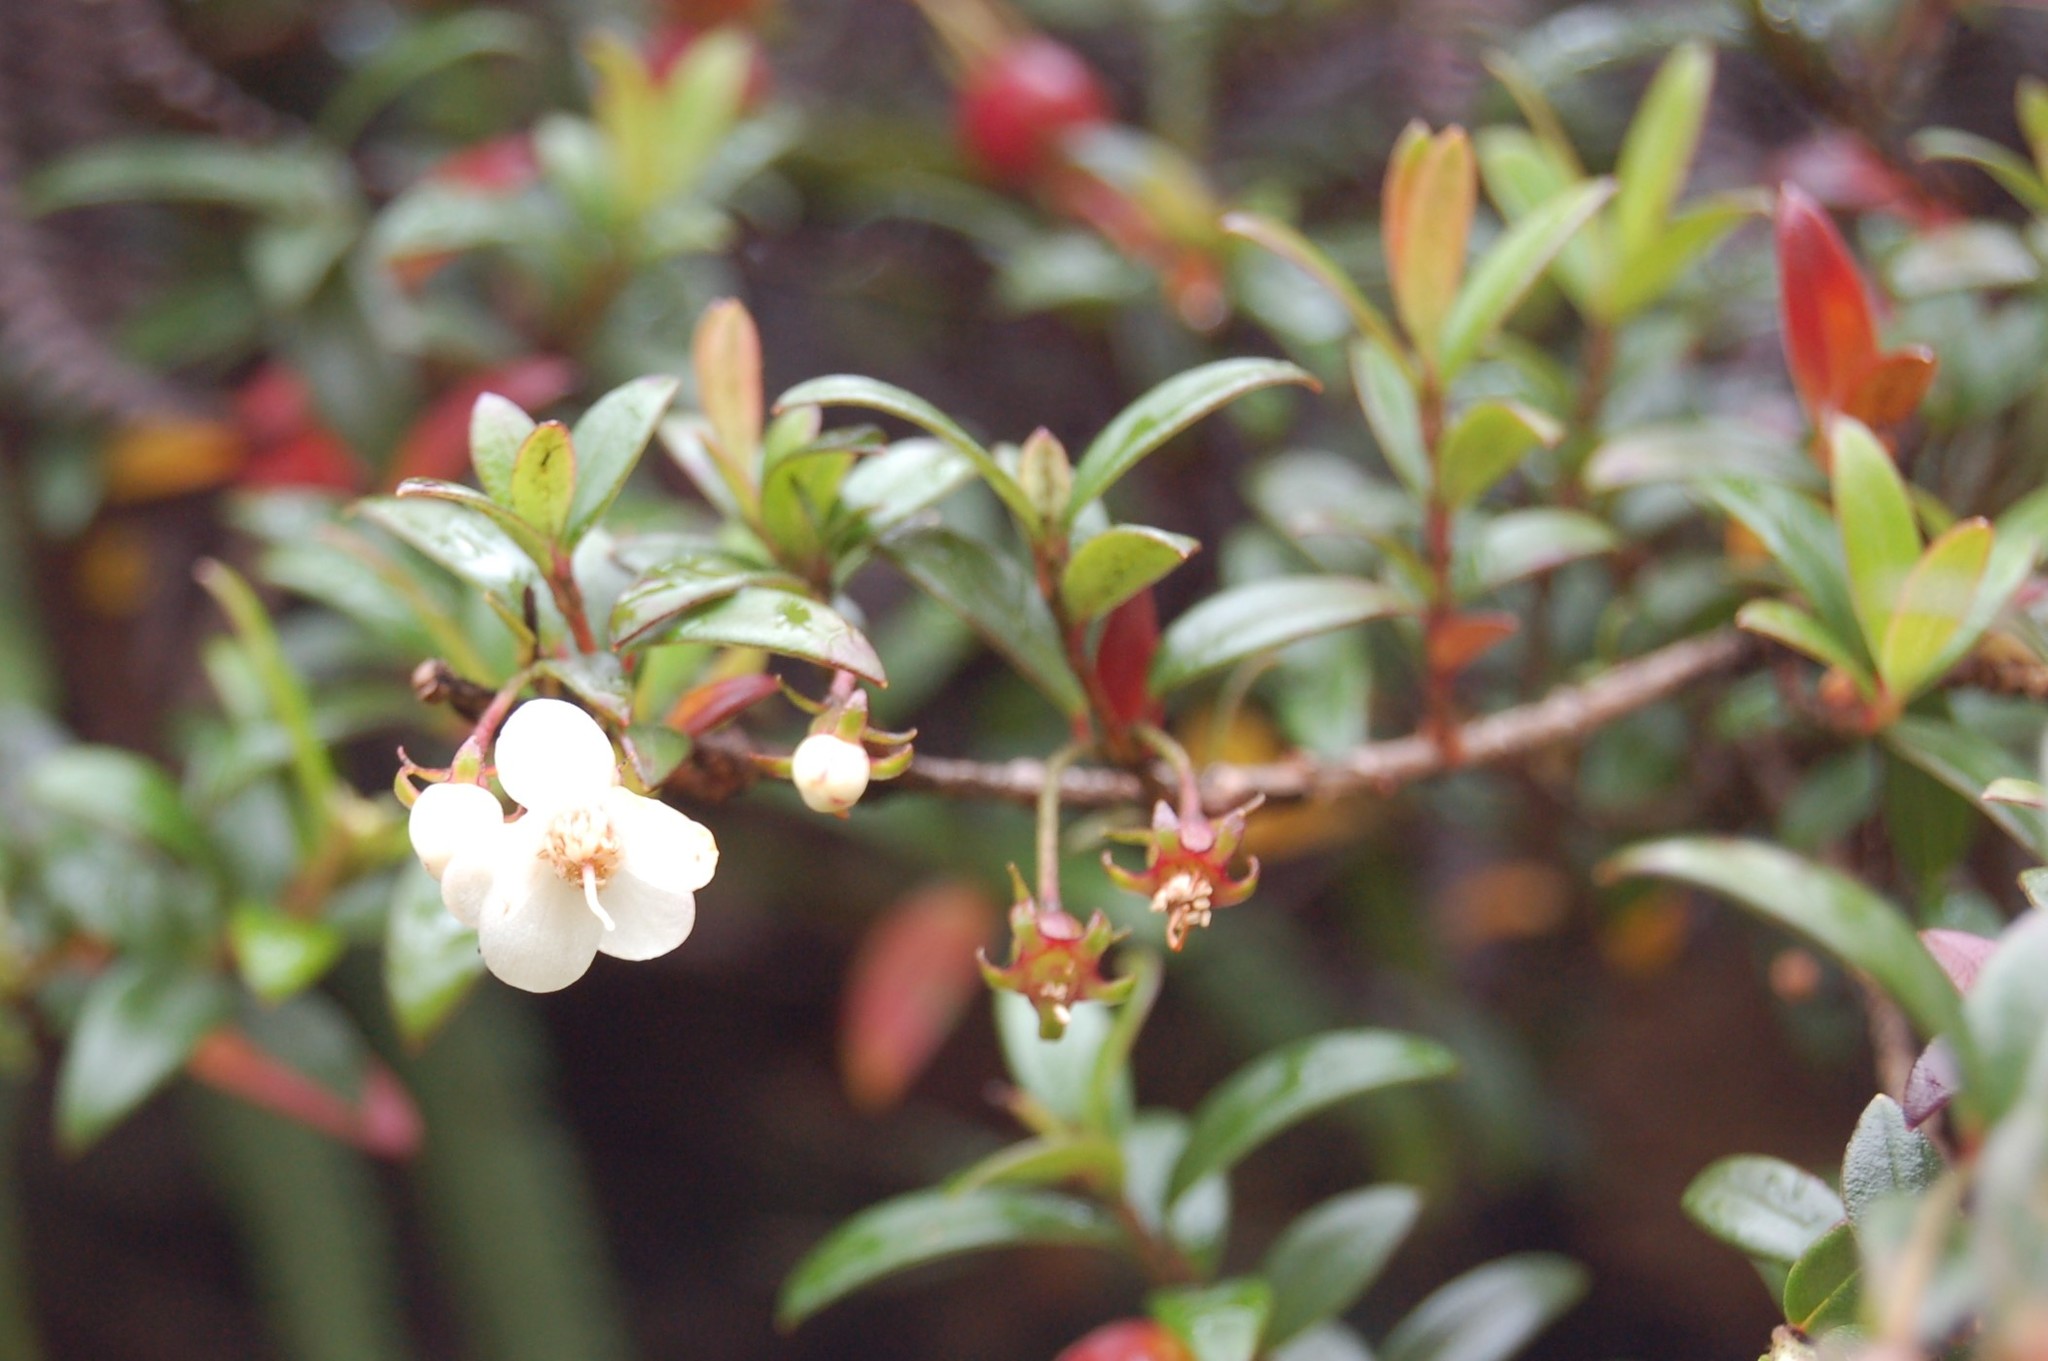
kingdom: Plantae
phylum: Tracheophyta
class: Magnoliopsida
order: Myrtales
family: Myrtaceae
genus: Ugni
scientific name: Ugni myricoides
